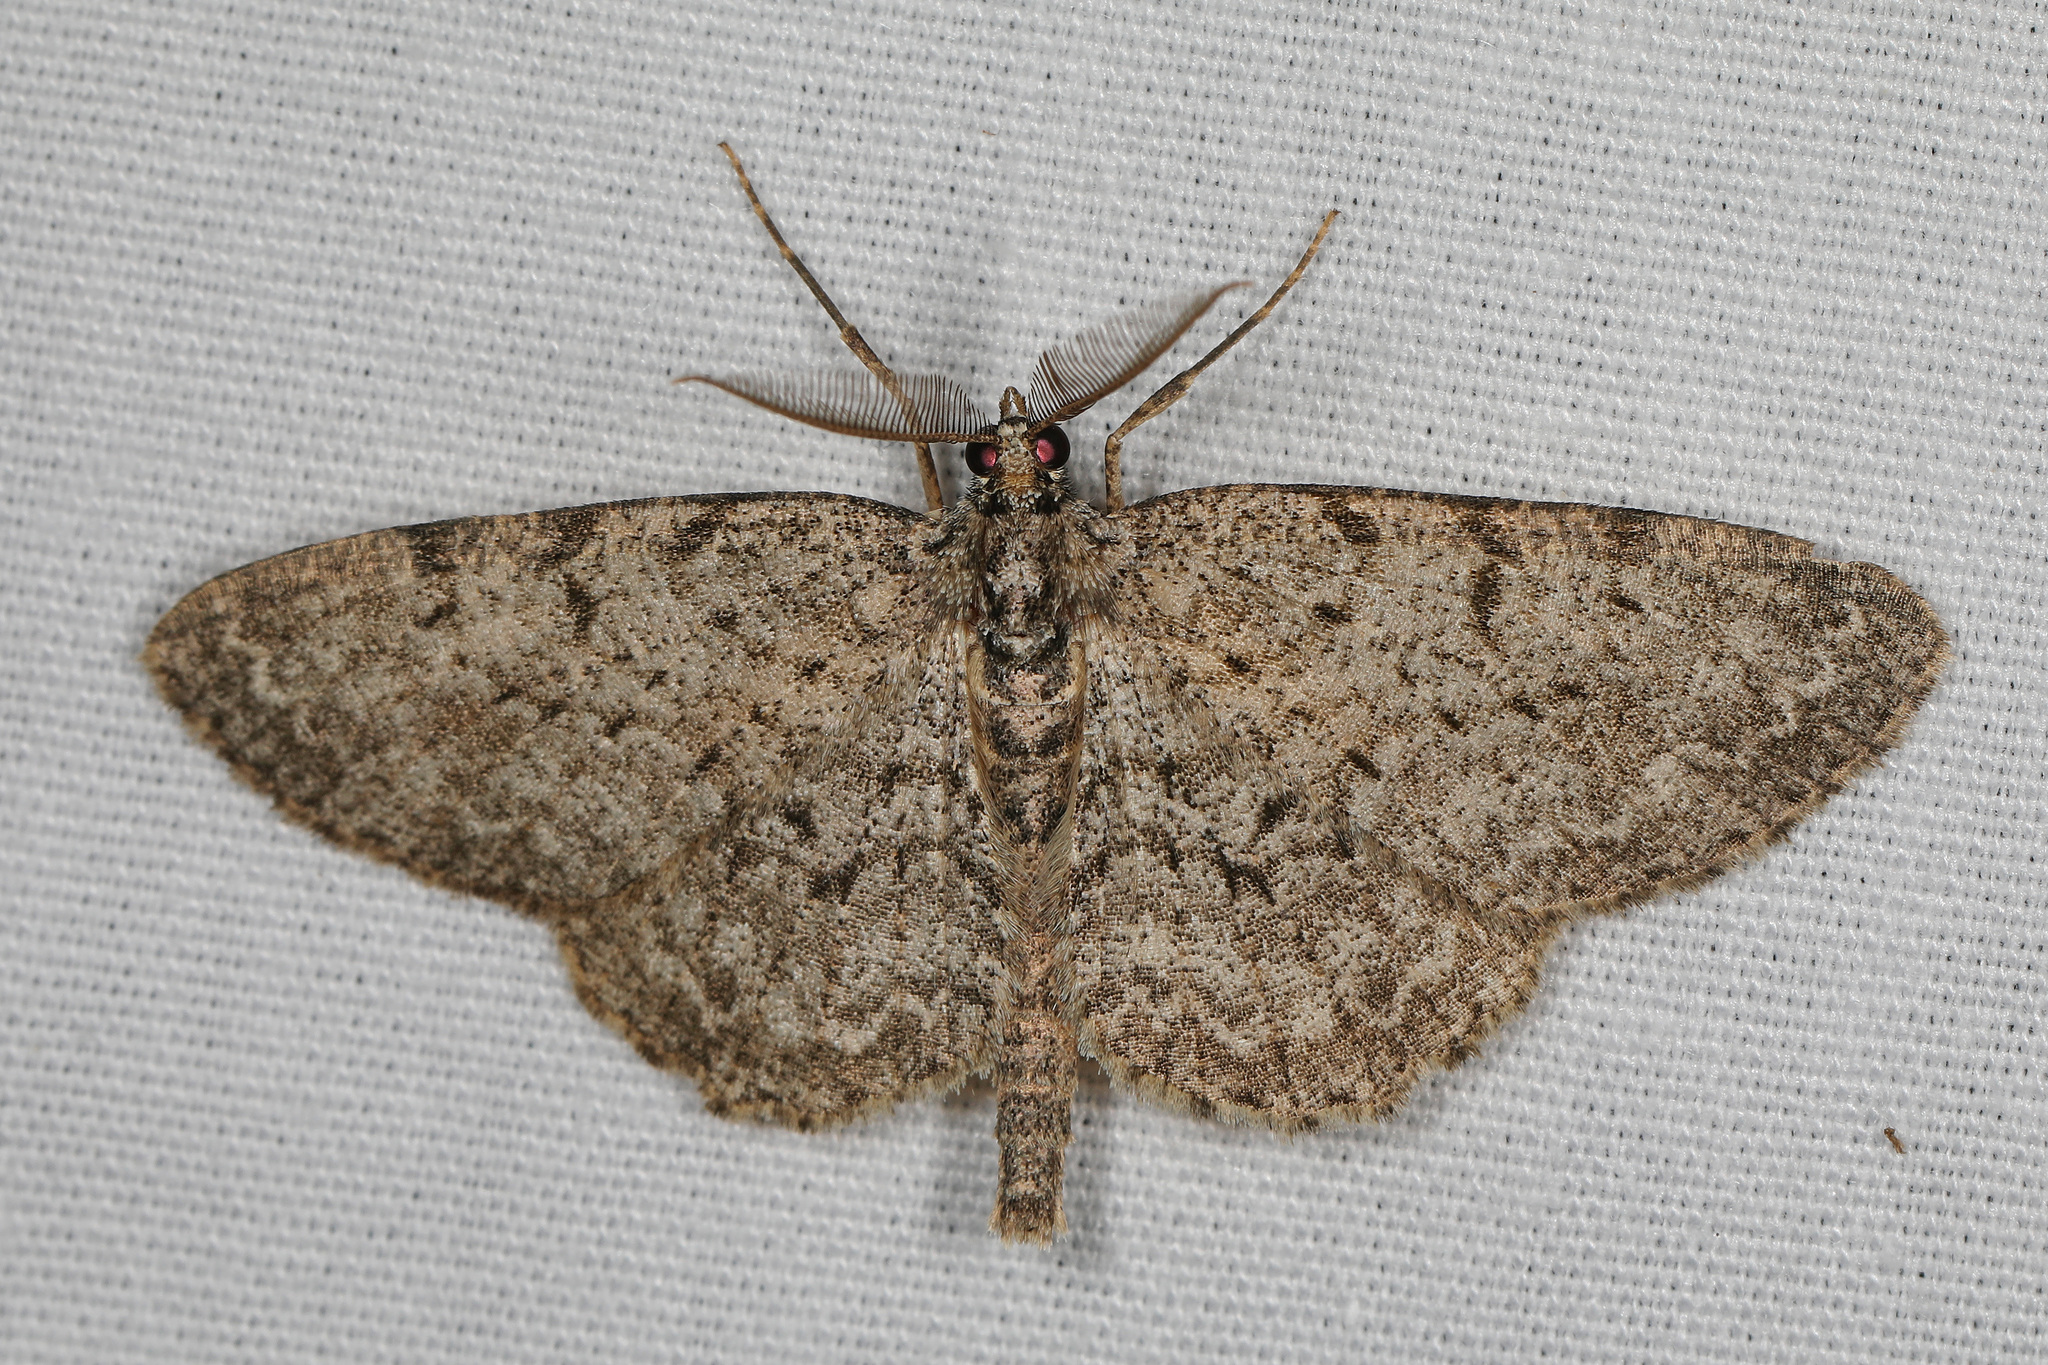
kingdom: Animalia
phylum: Arthropoda
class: Insecta
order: Lepidoptera
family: Geometridae
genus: Protoboarmia
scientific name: Protoboarmia porcelaria
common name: Porcelain gray
